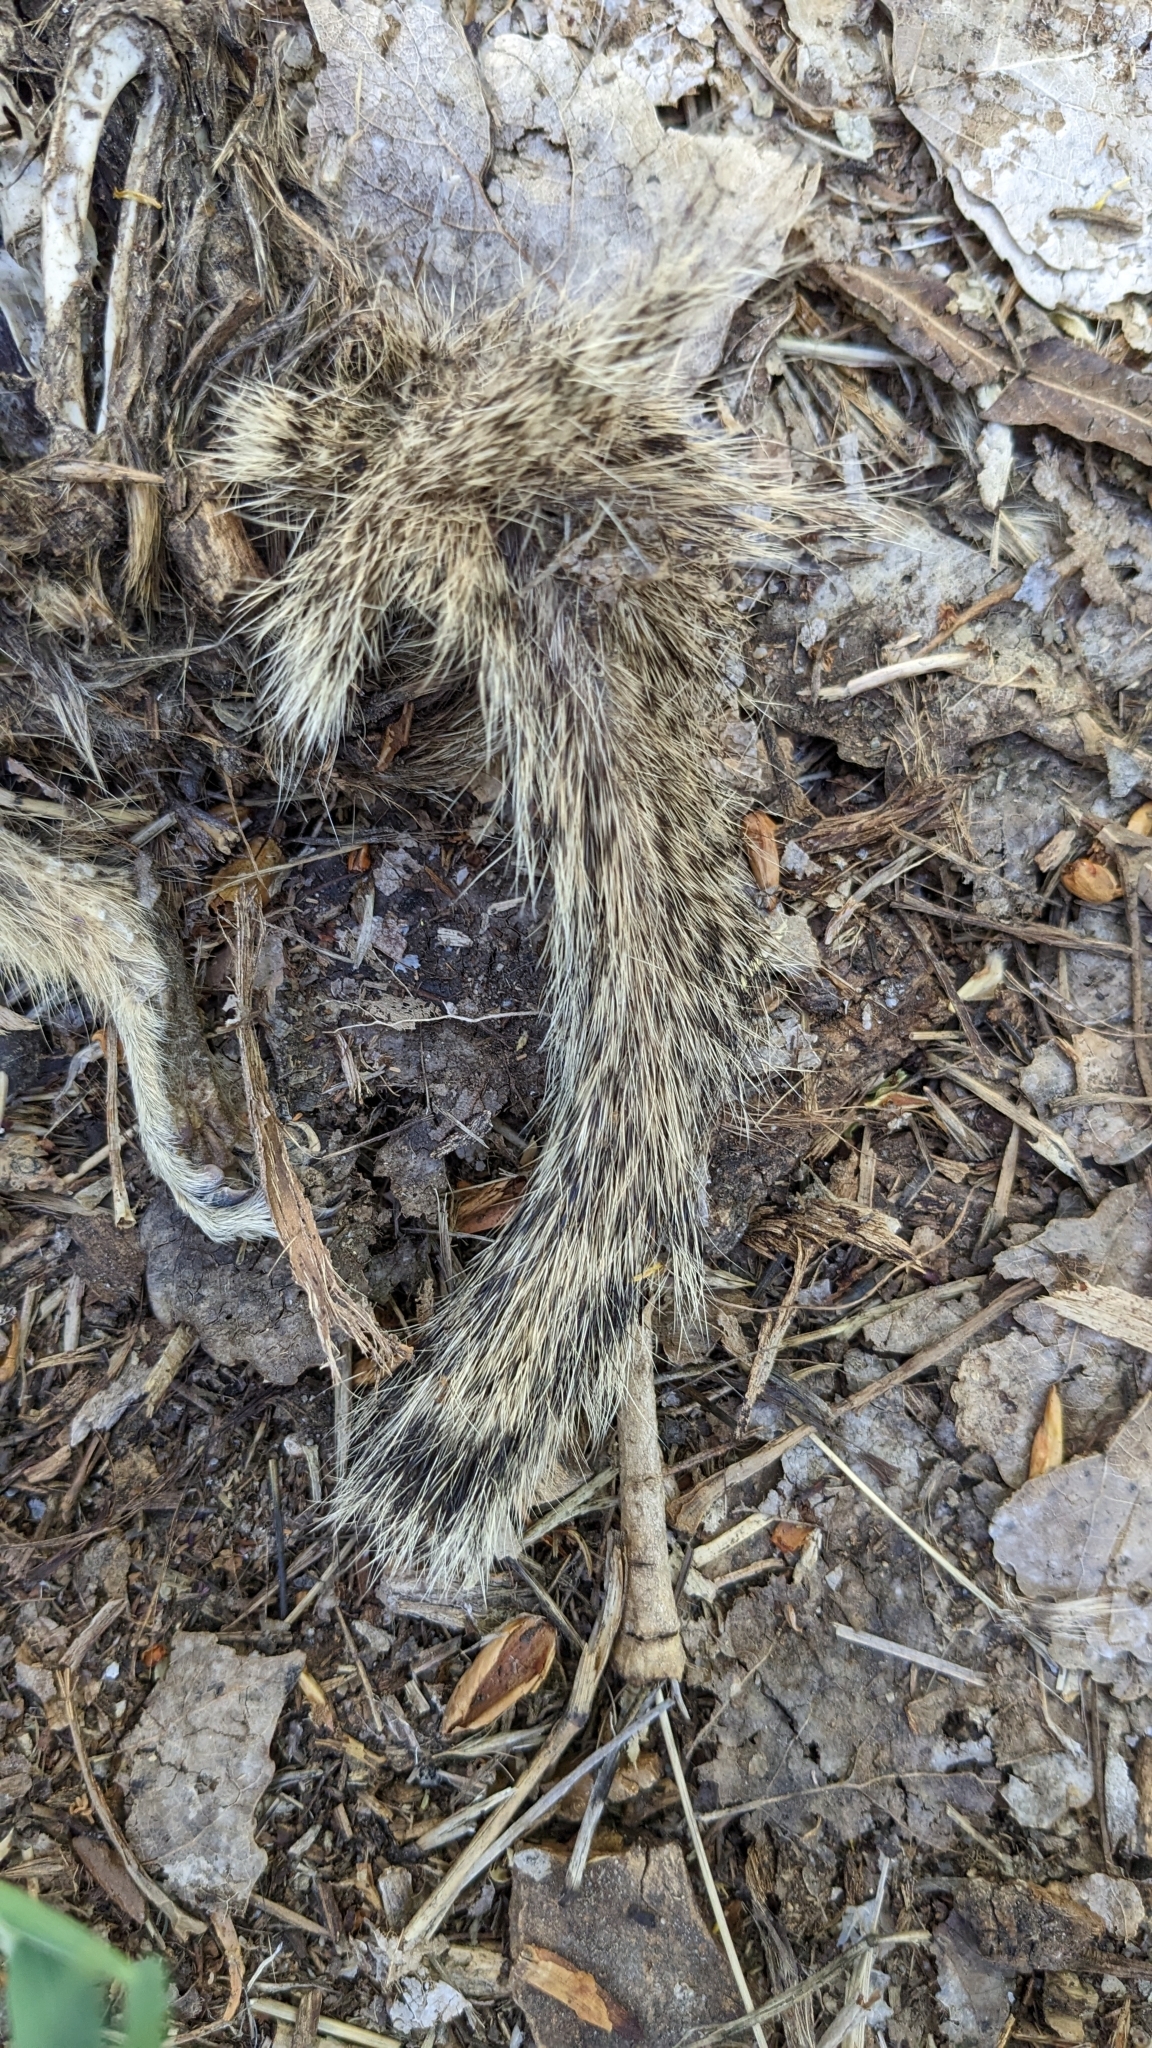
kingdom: Animalia
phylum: Chordata
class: Mammalia
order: Rodentia
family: Sciuridae
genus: Otospermophilus
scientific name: Otospermophilus beecheyi
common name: California ground squirrel
